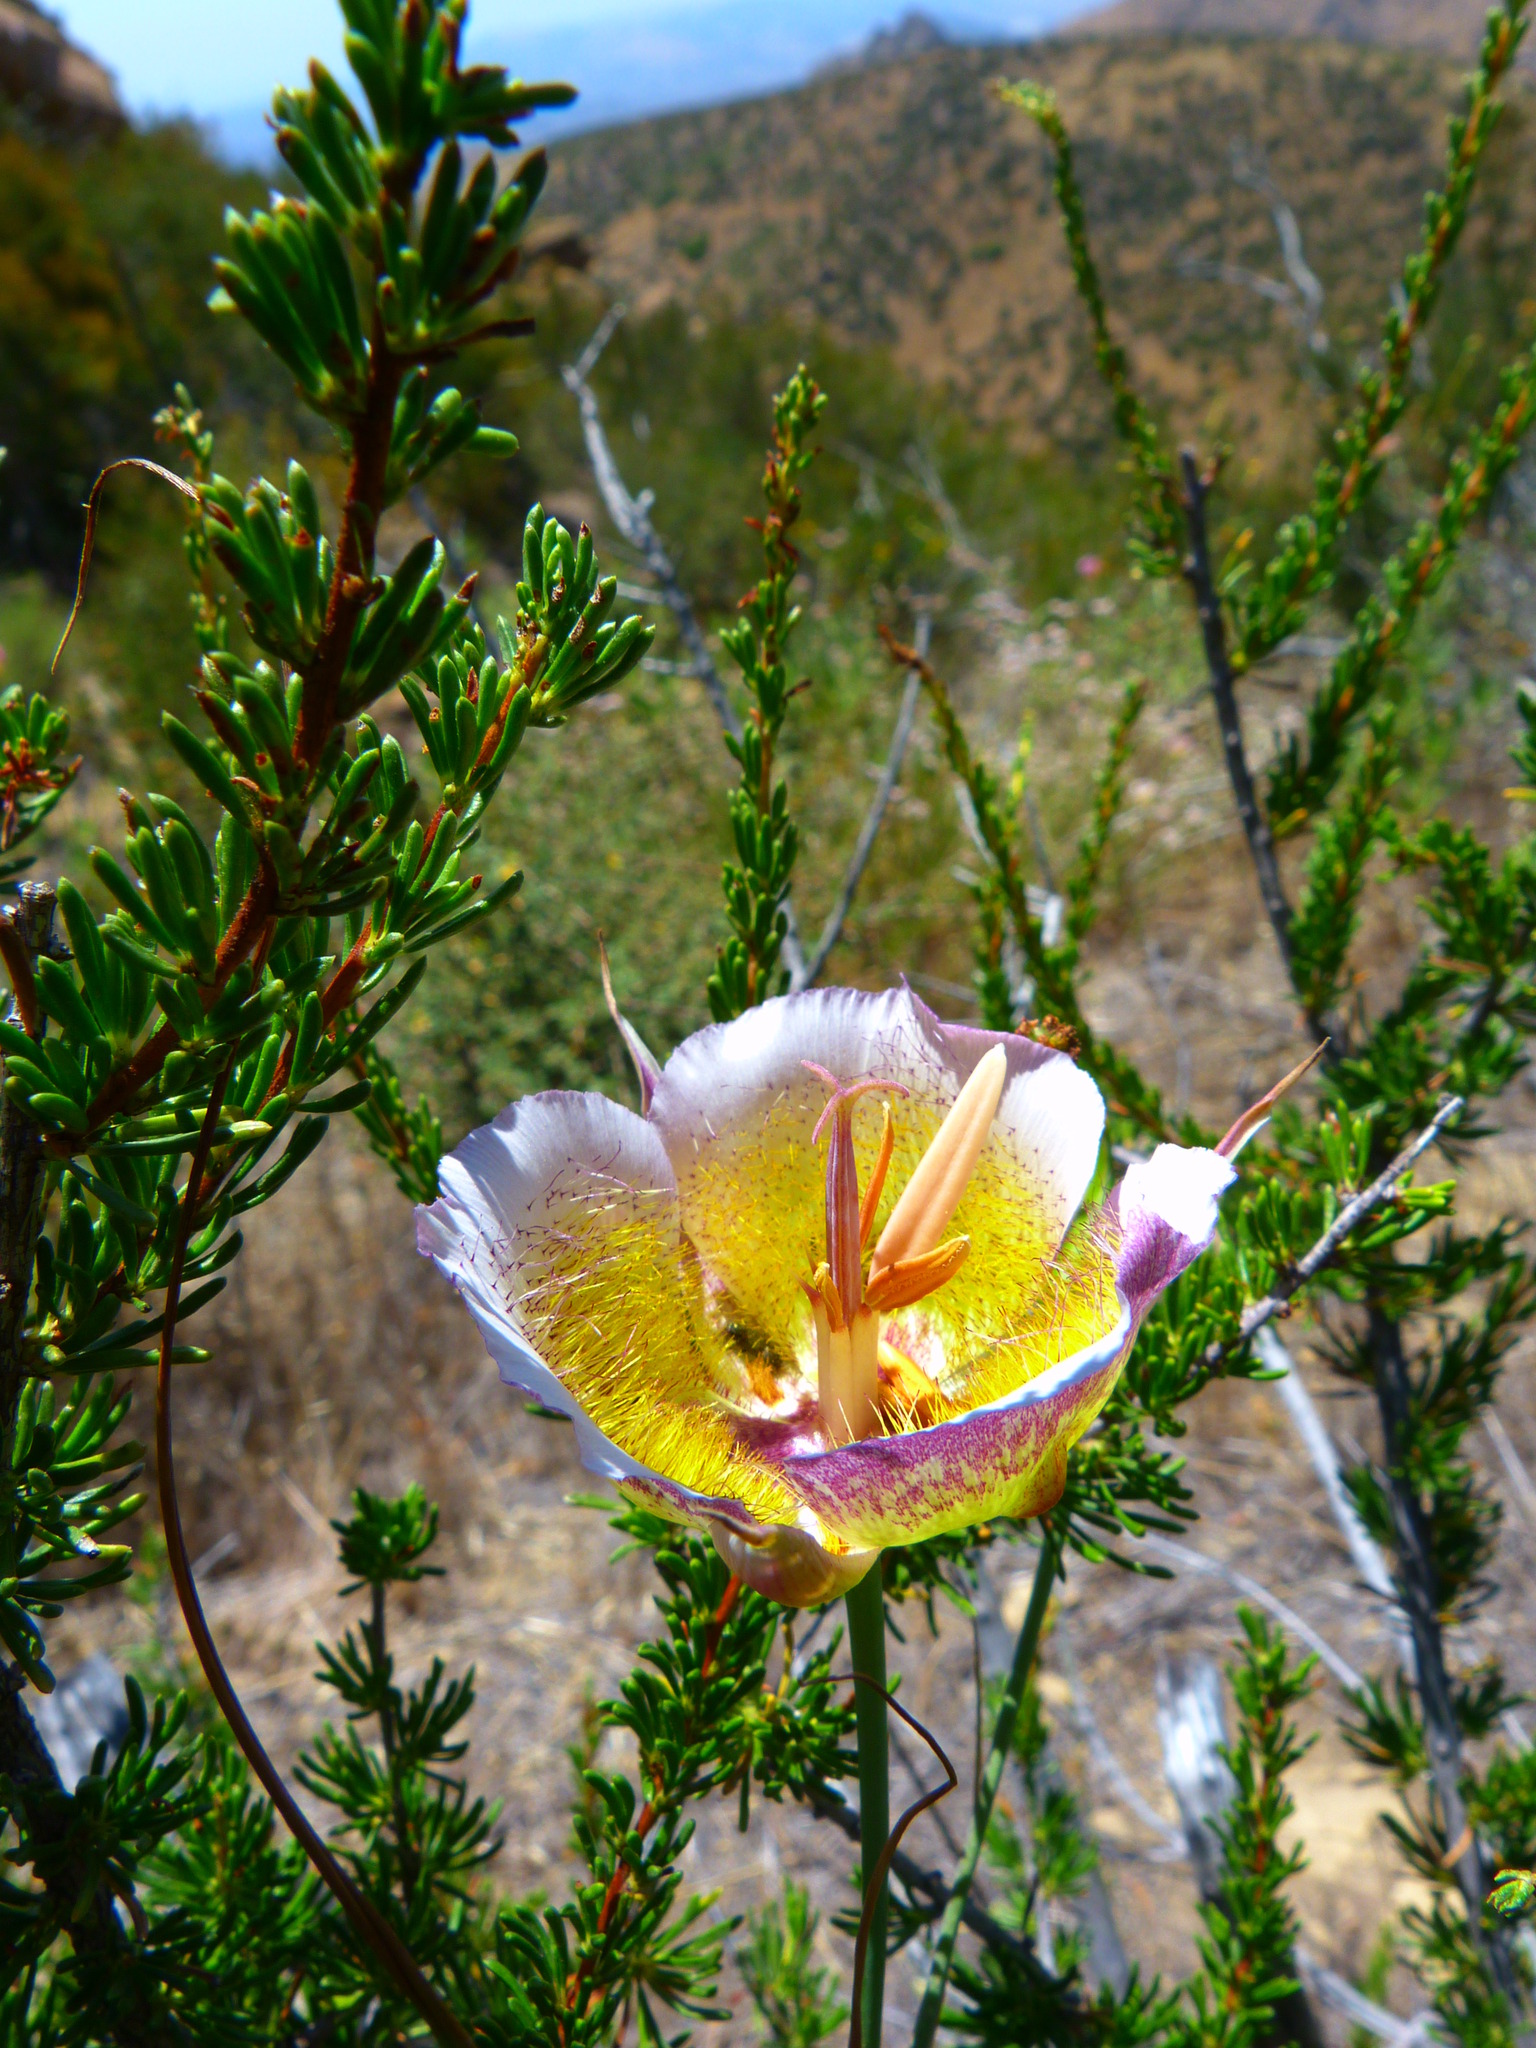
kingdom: Plantae
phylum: Tracheophyta
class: Liliopsida
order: Liliales
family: Liliaceae
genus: Calochortus
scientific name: Calochortus plummerae
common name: Plummer's mariposa-lily
